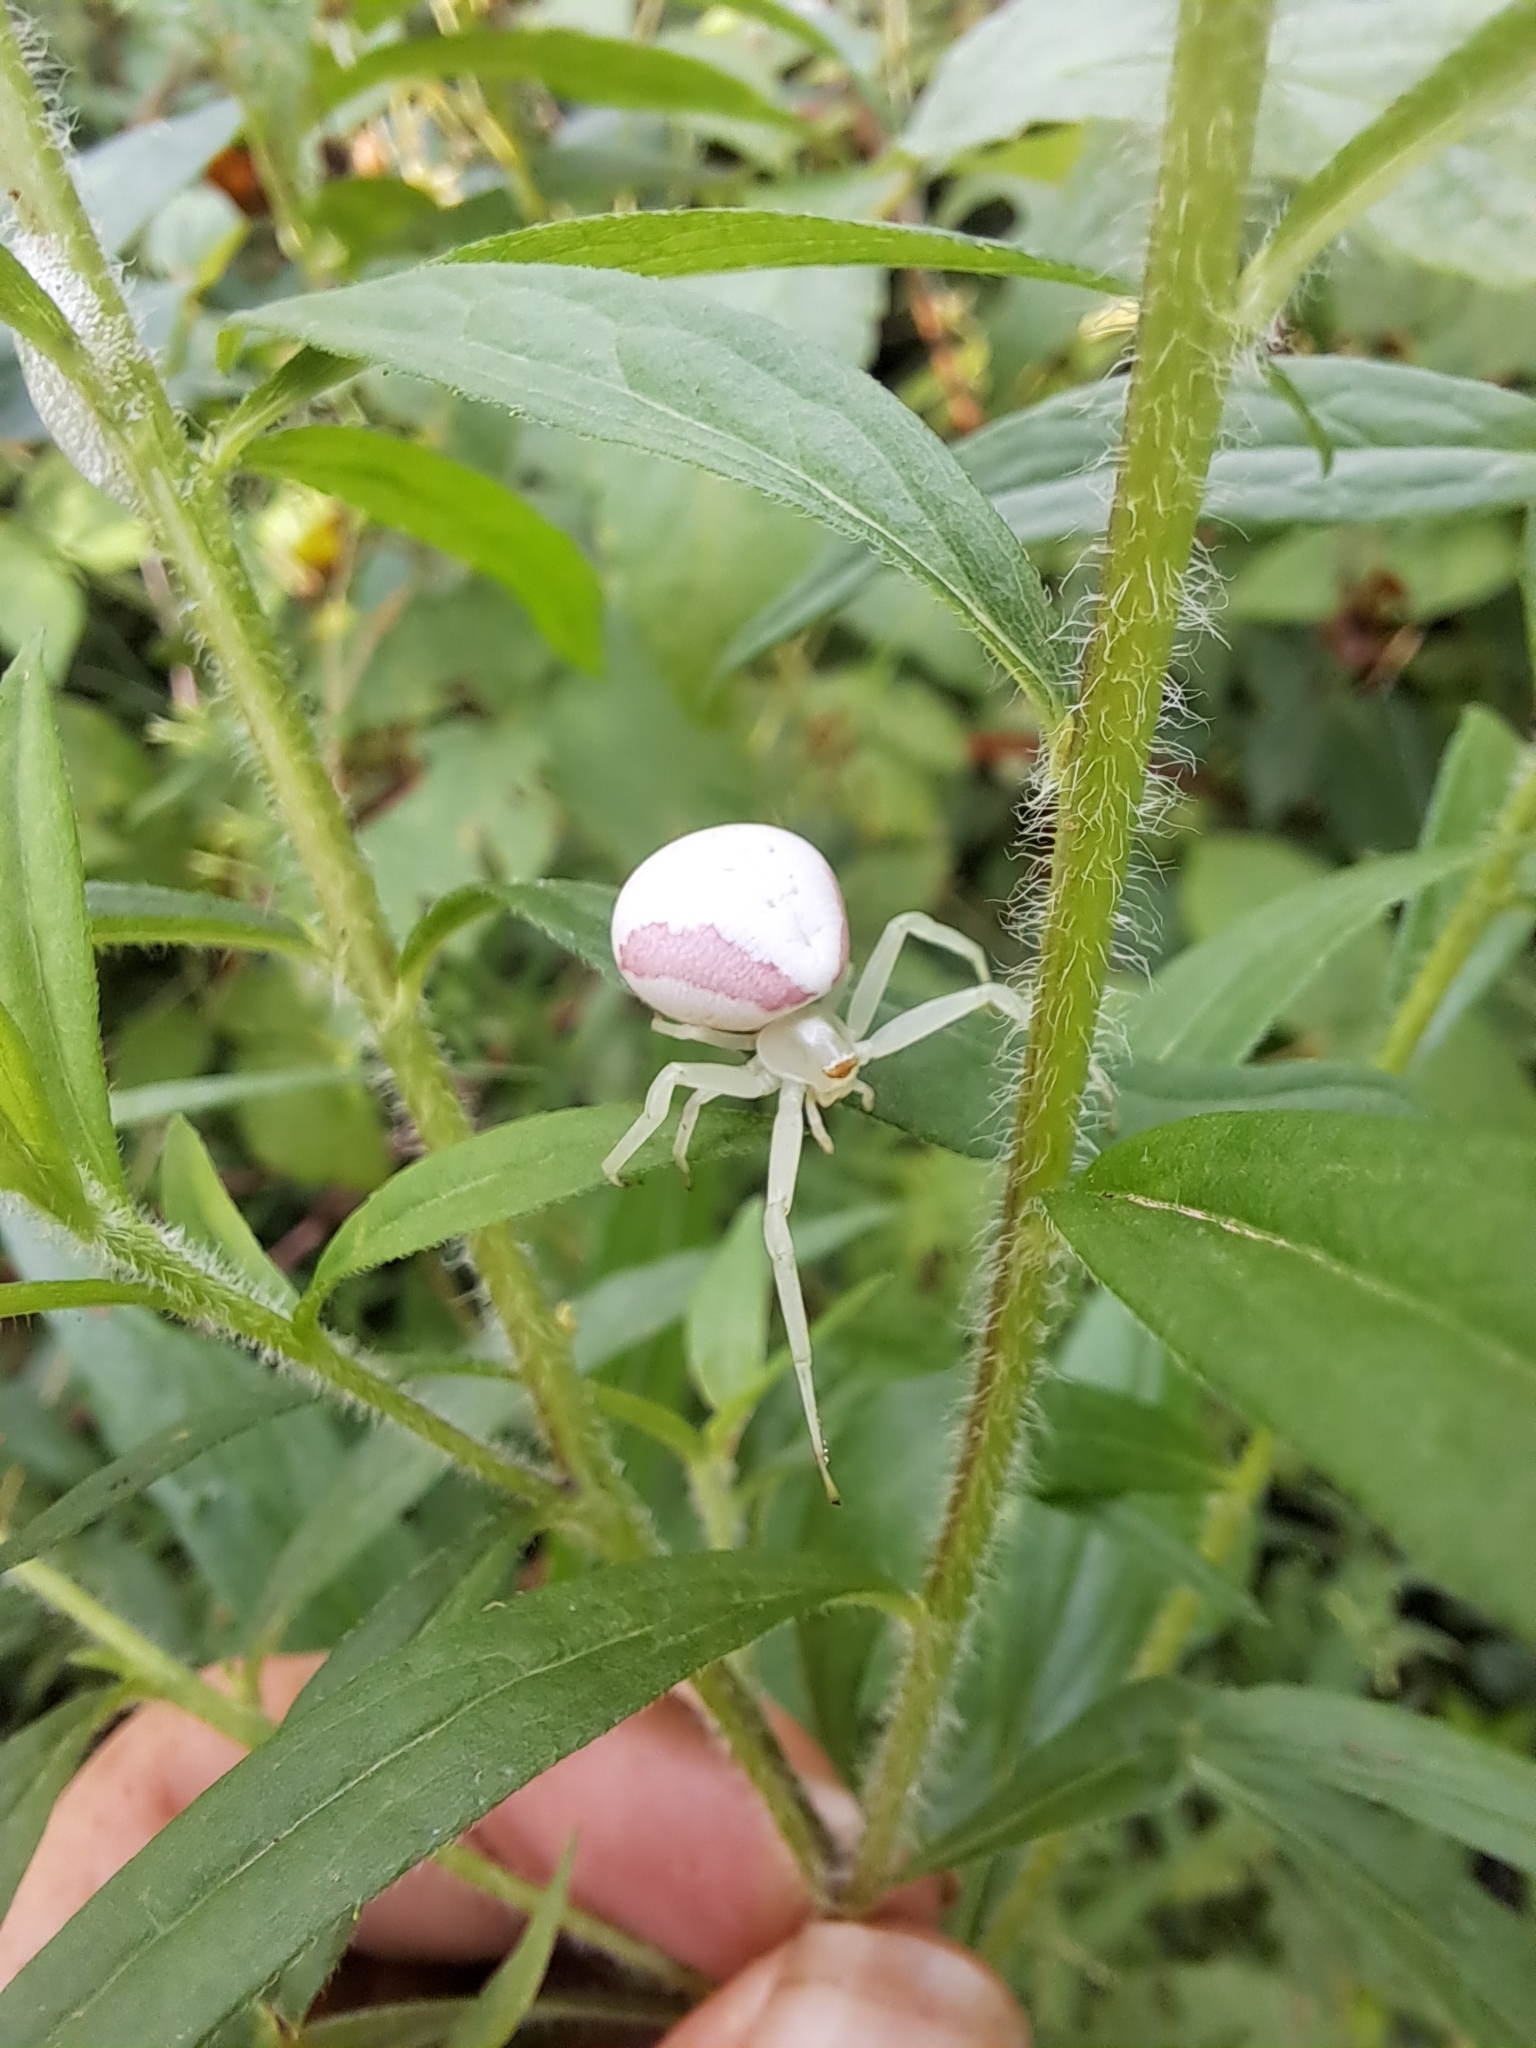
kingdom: Animalia
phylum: Arthropoda
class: Arachnida
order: Araneae
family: Thomisidae
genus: Misumena
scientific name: Misumena vatia
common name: Goldenrod crab spider
